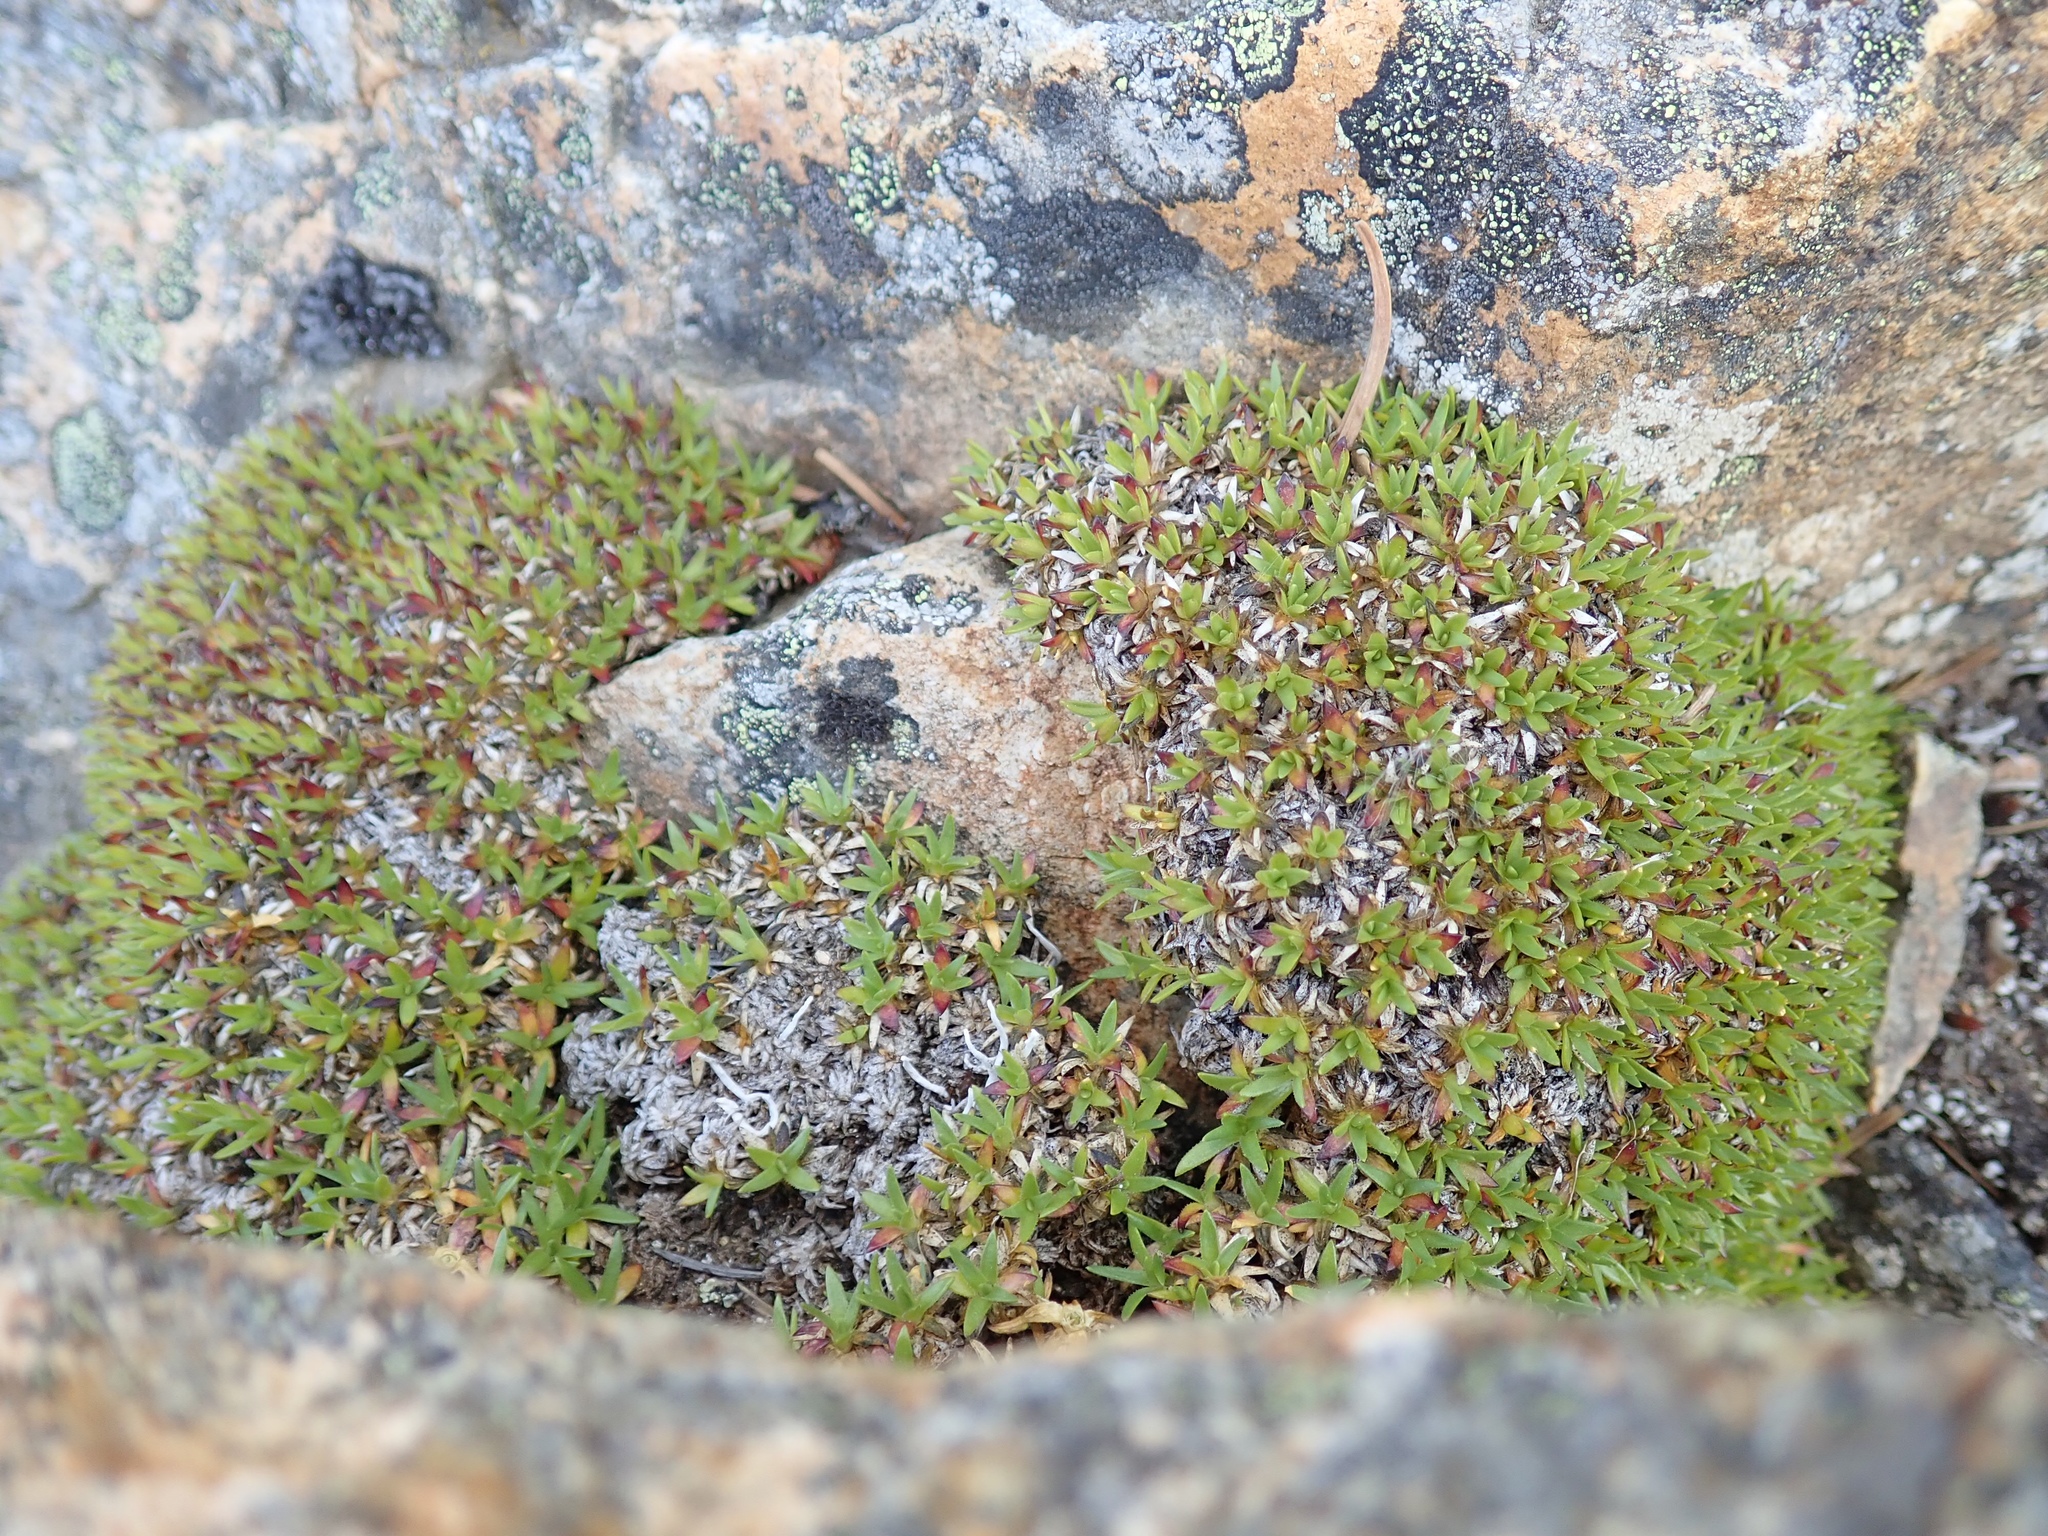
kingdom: Plantae
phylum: Tracheophyta
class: Magnoliopsida
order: Caryophyllales
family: Caryophyllaceae
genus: Silene
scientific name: Silene acaulis
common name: Moss campion
